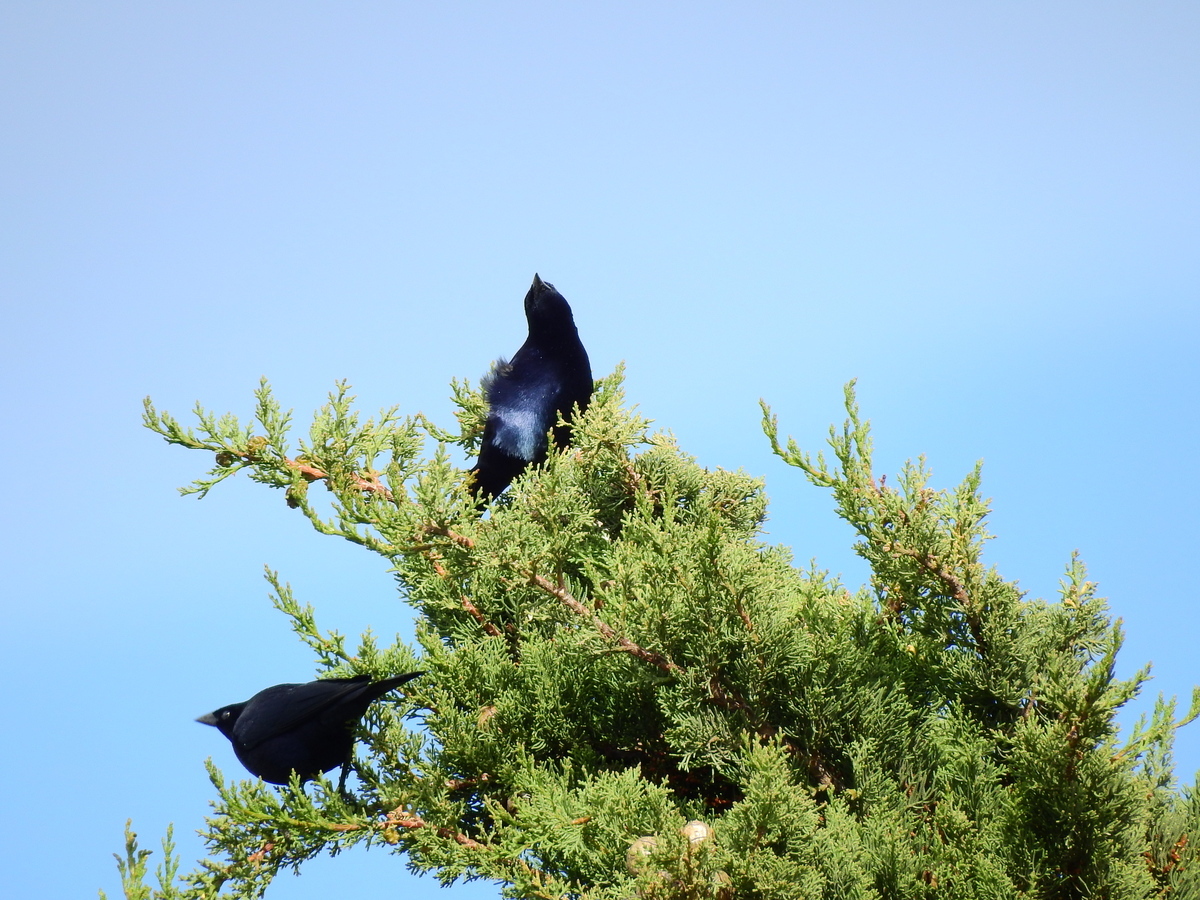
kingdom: Animalia
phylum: Chordata
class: Aves
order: Passeriformes
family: Icteridae
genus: Molothrus
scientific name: Molothrus bonariensis
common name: Shiny cowbird
